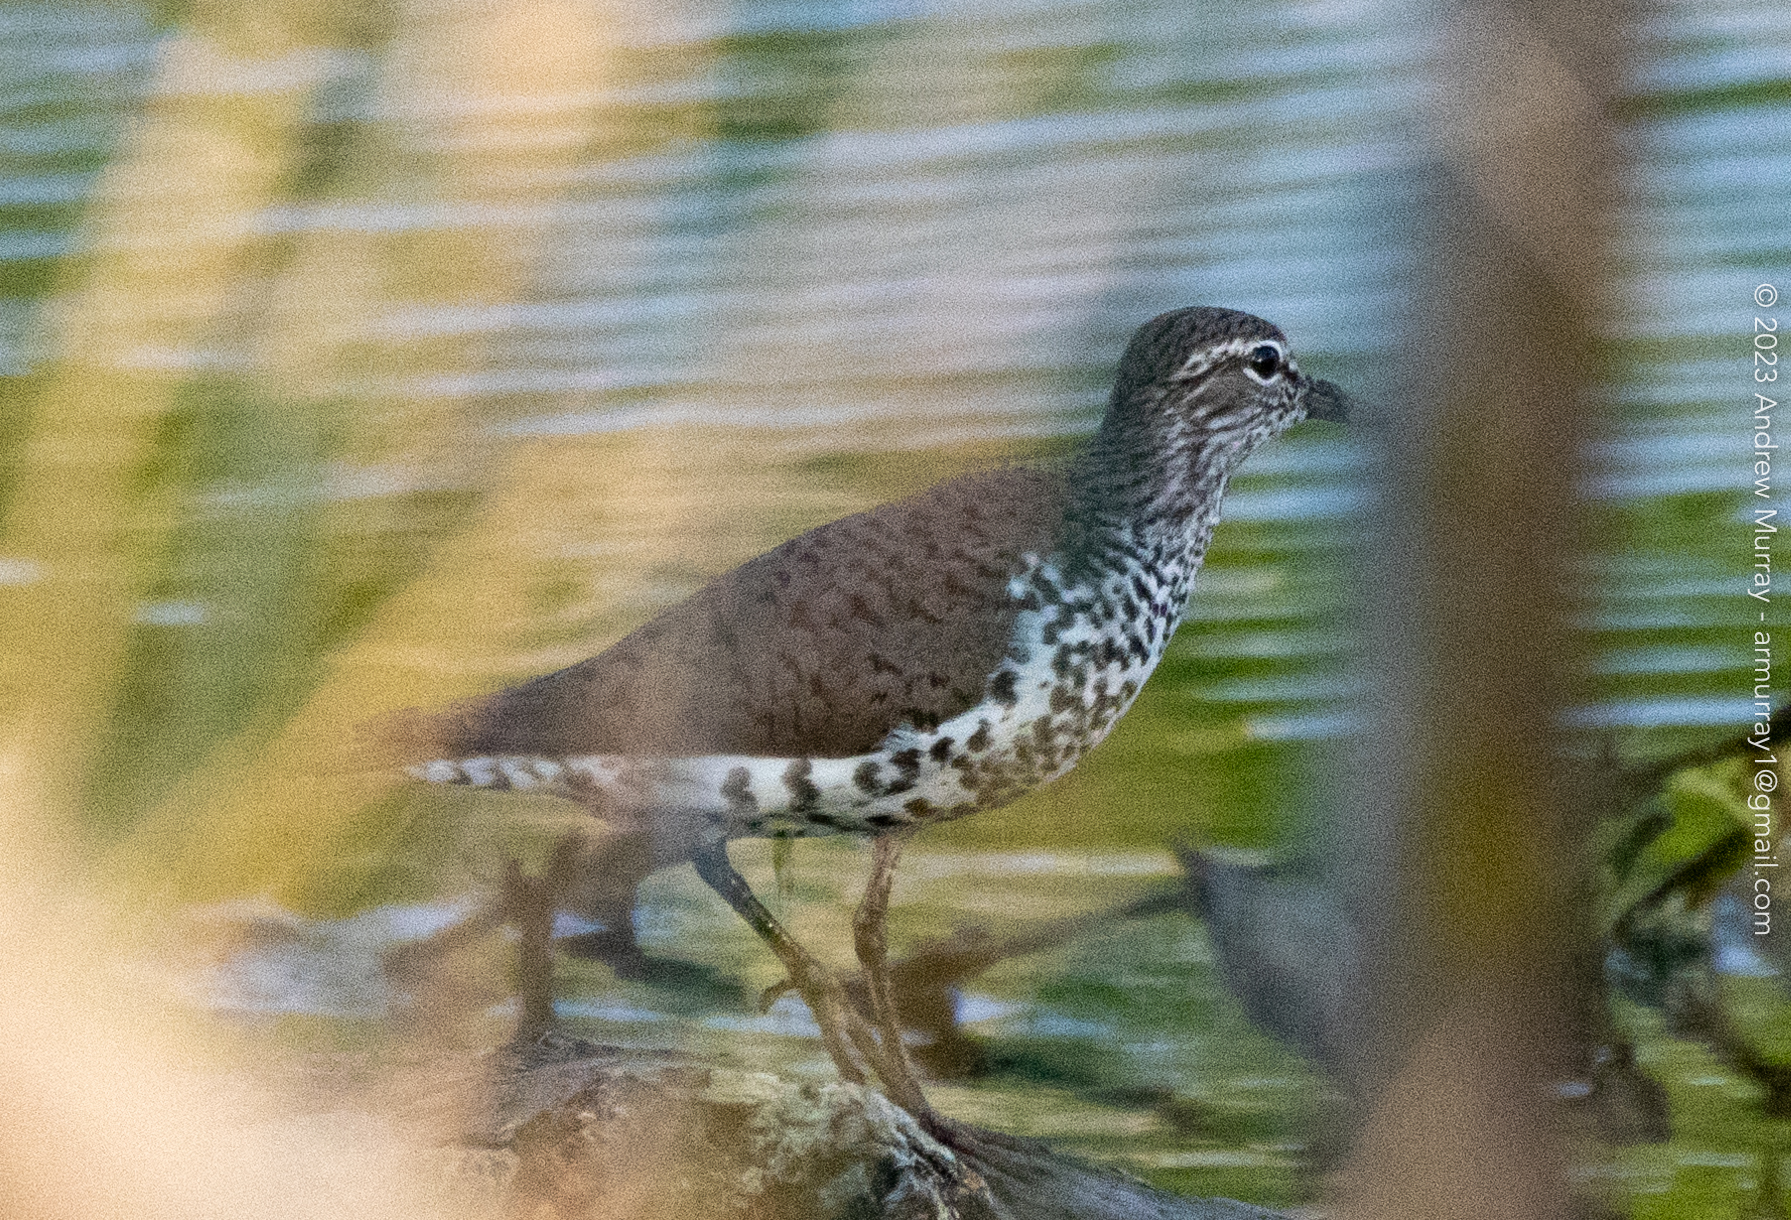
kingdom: Animalia
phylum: Chordata
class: Aves
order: Charadriiformes
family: Scolopacidae
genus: Actitis
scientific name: Actitis macularius
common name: Spotted sandpiper
